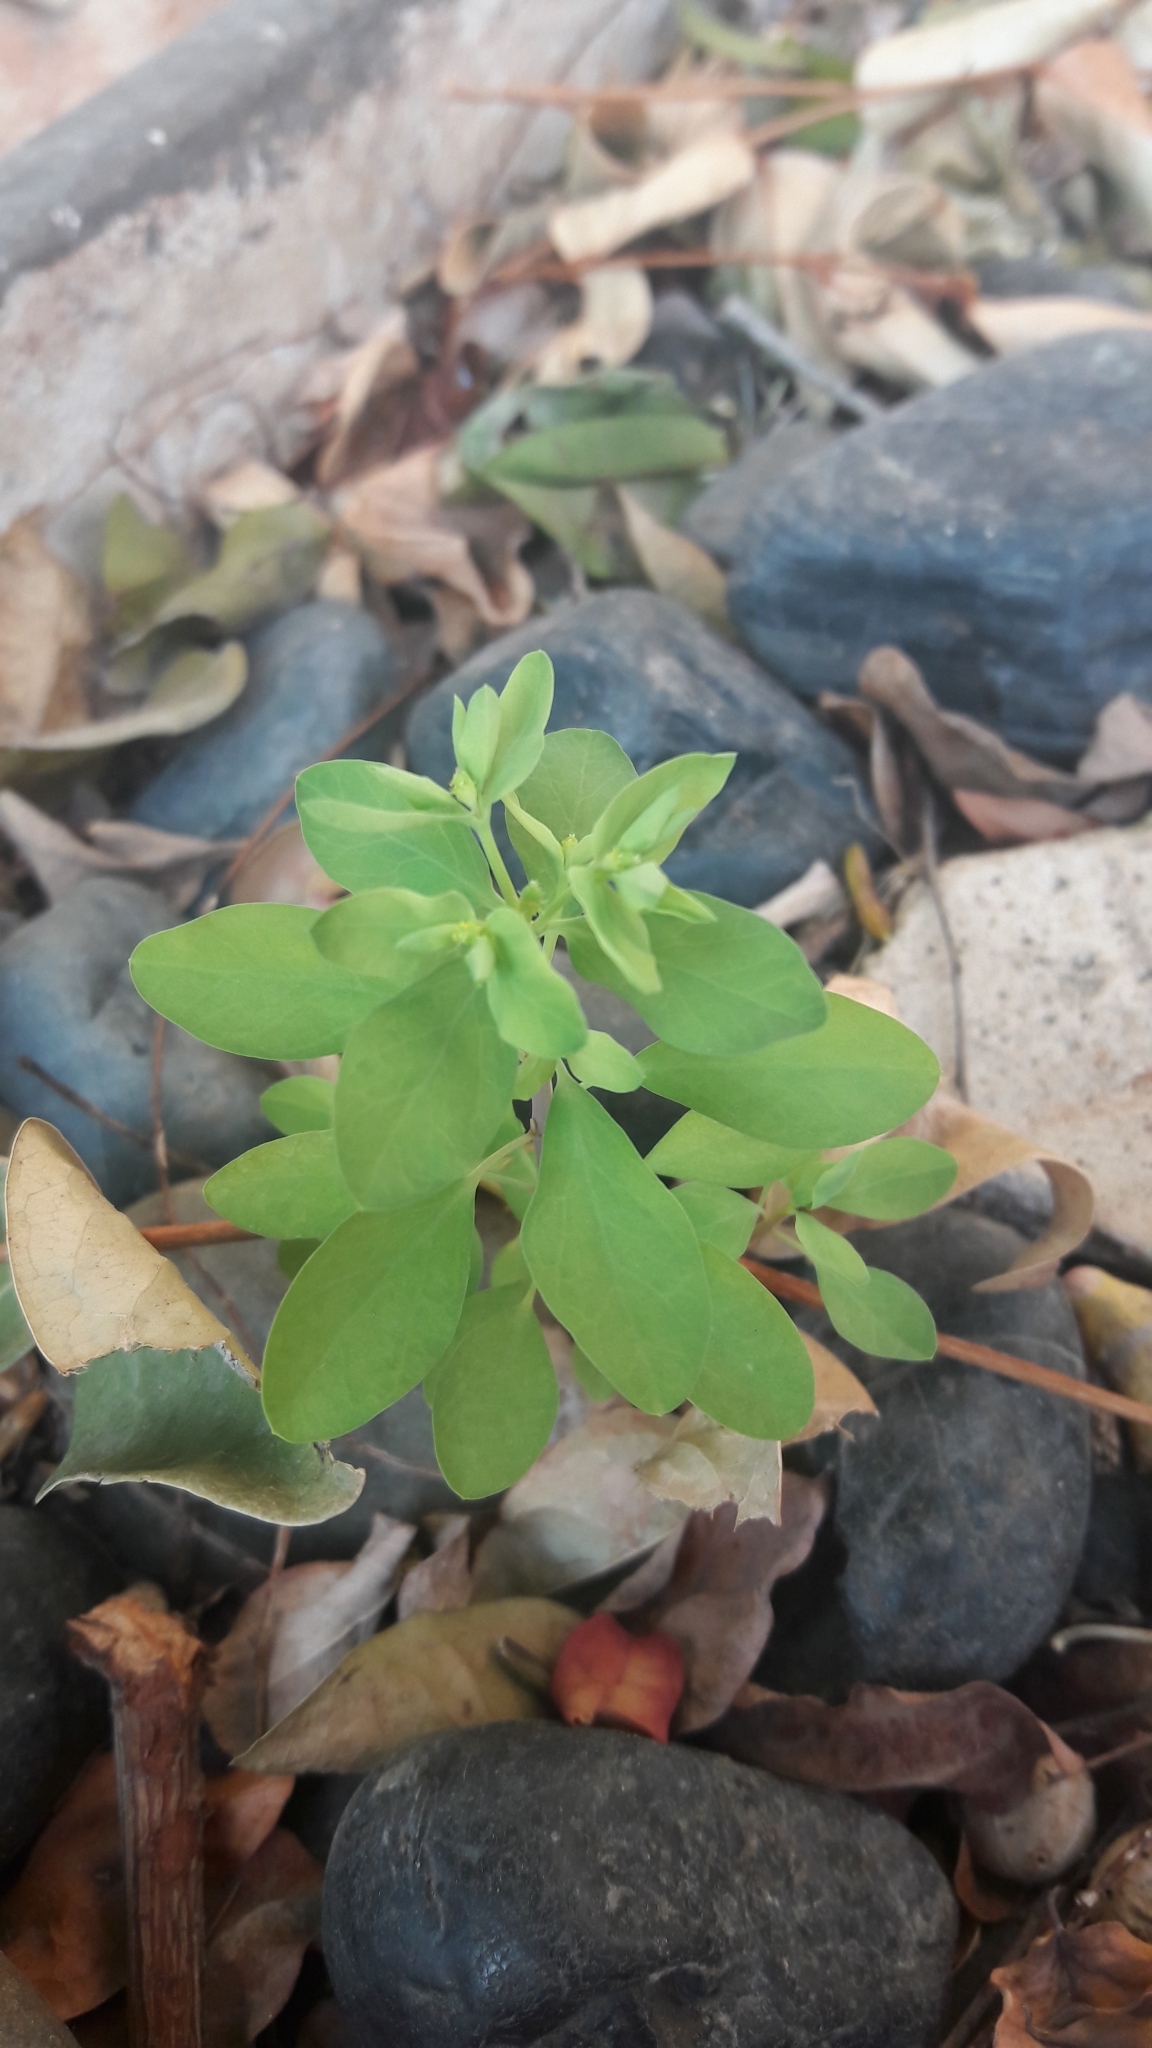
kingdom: Plantae
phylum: Tracheophyta
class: Magnoliopsida
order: Malpighiales
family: Euphorbiaceae
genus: Euphorbia
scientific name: Euphorbia peplus
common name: Petty spurge
